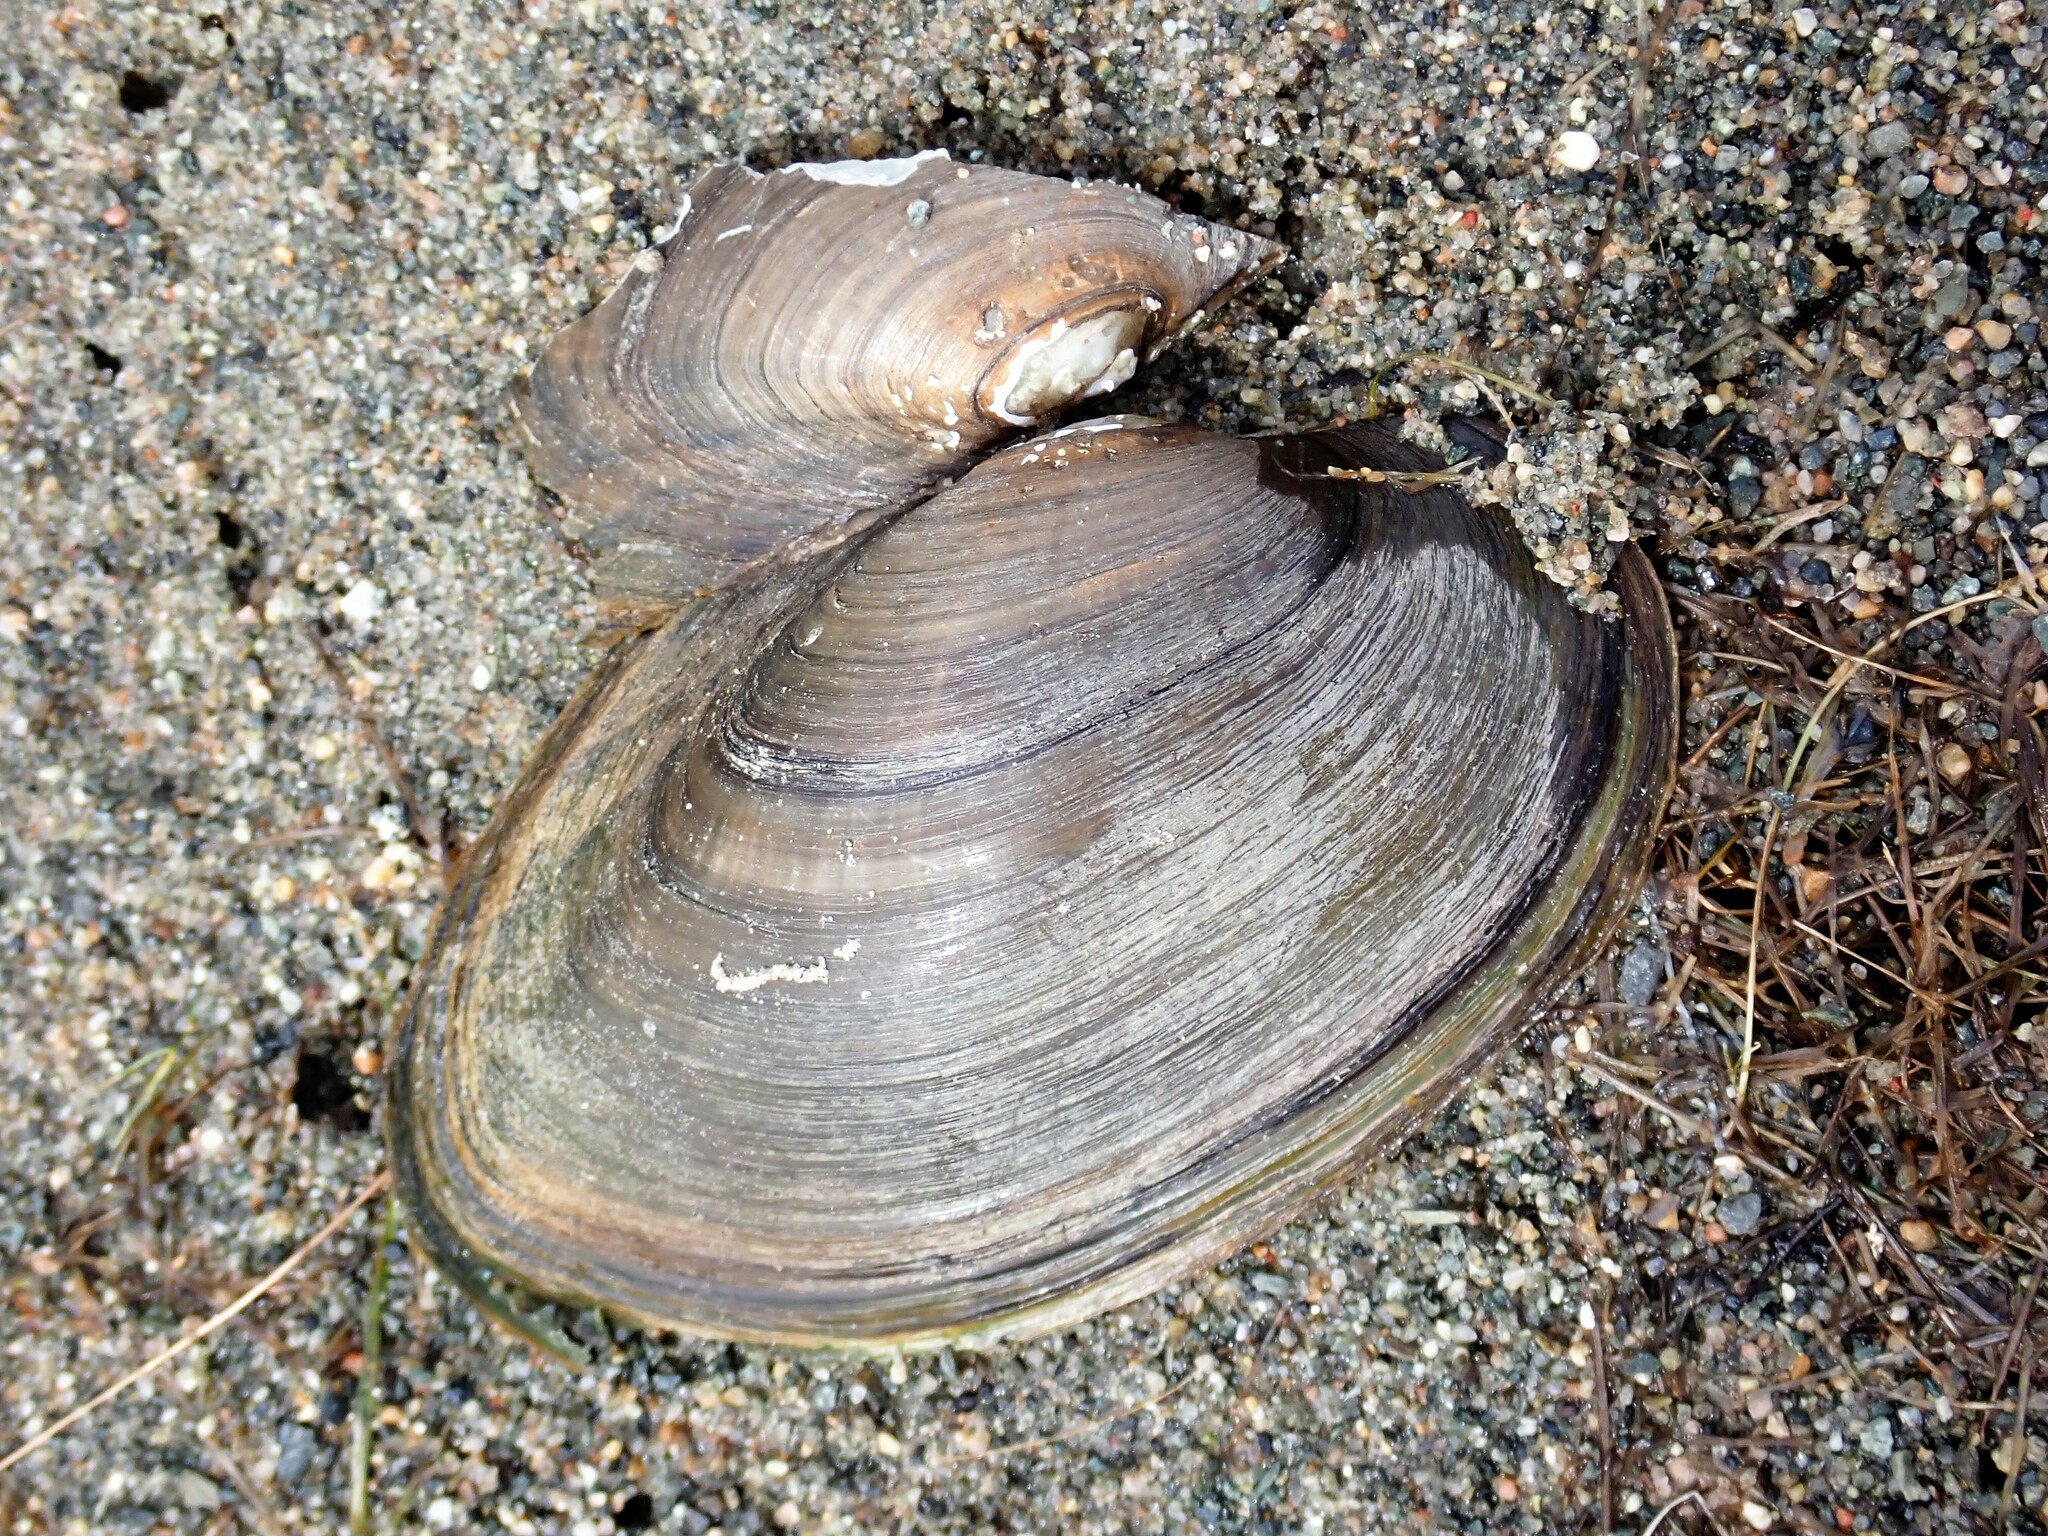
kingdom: Animalia
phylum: Mollusca
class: Bivalvia
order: Unionida
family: Unionidae
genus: Pyganodon
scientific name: Pyganodon grandis
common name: Giant floater
